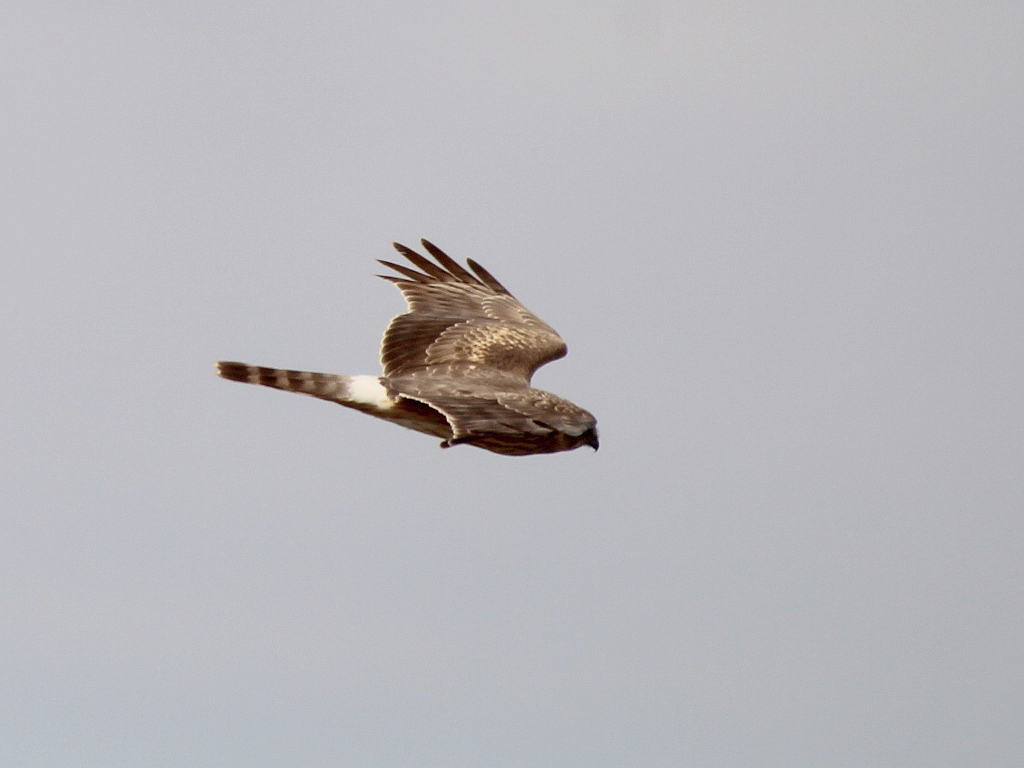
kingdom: Animalia
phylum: Chordata
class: Aves
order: Accipitriformes
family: Accipitridae
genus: Circus
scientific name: Circus cyaneus
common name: Hen harrier
